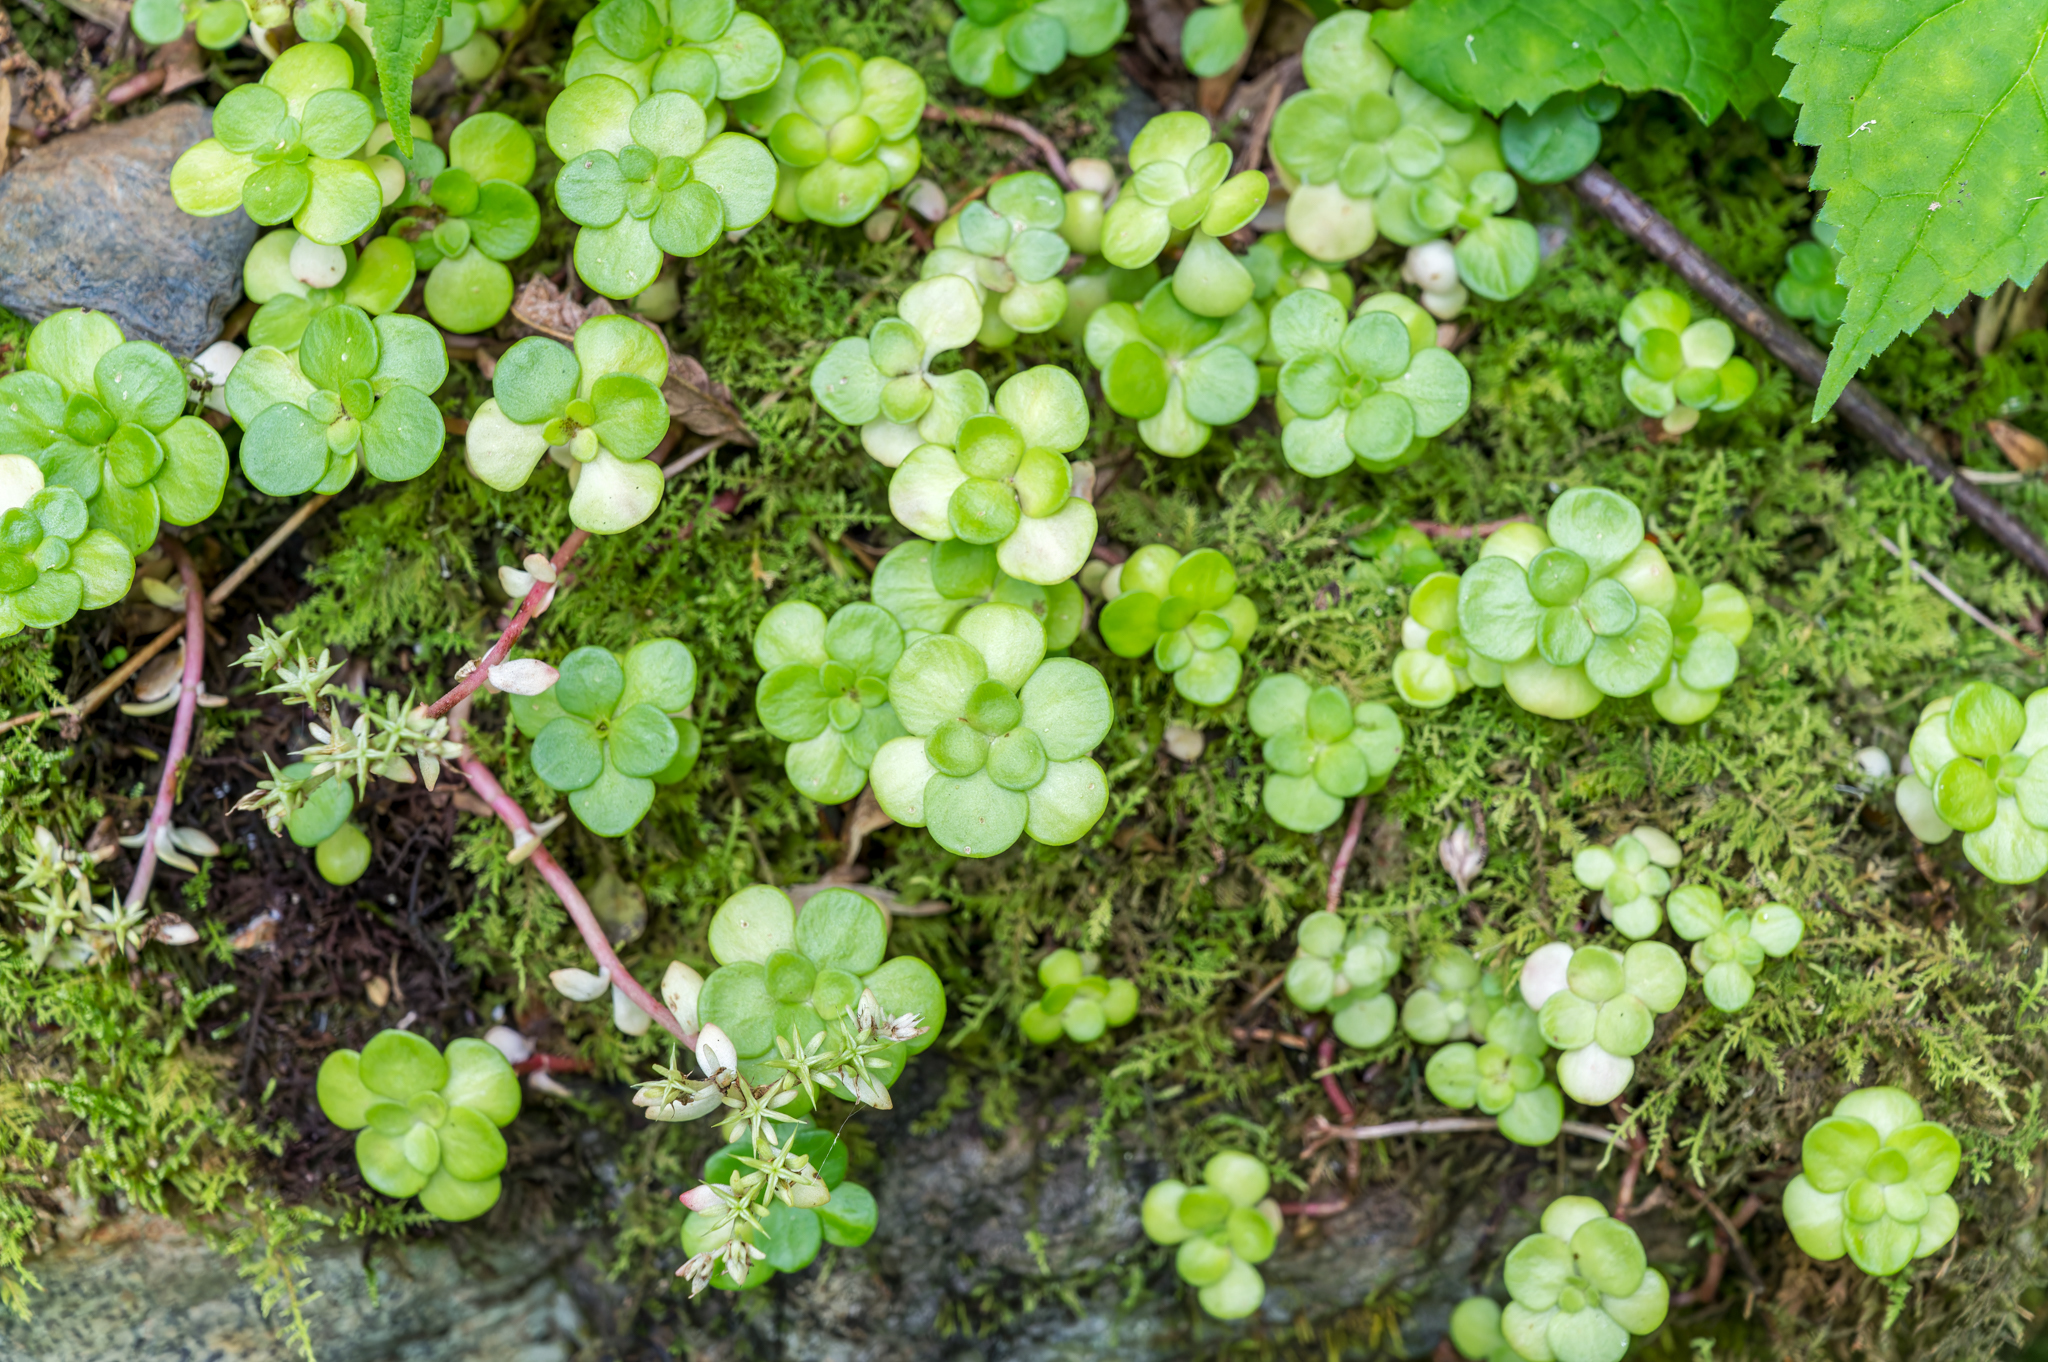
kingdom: Plantae
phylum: Tracheophyta
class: Magnoliopsida
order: Saxifragales
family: Crassulaceae
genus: Sedum
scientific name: Sedum ternatum
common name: Wild stonecrop
